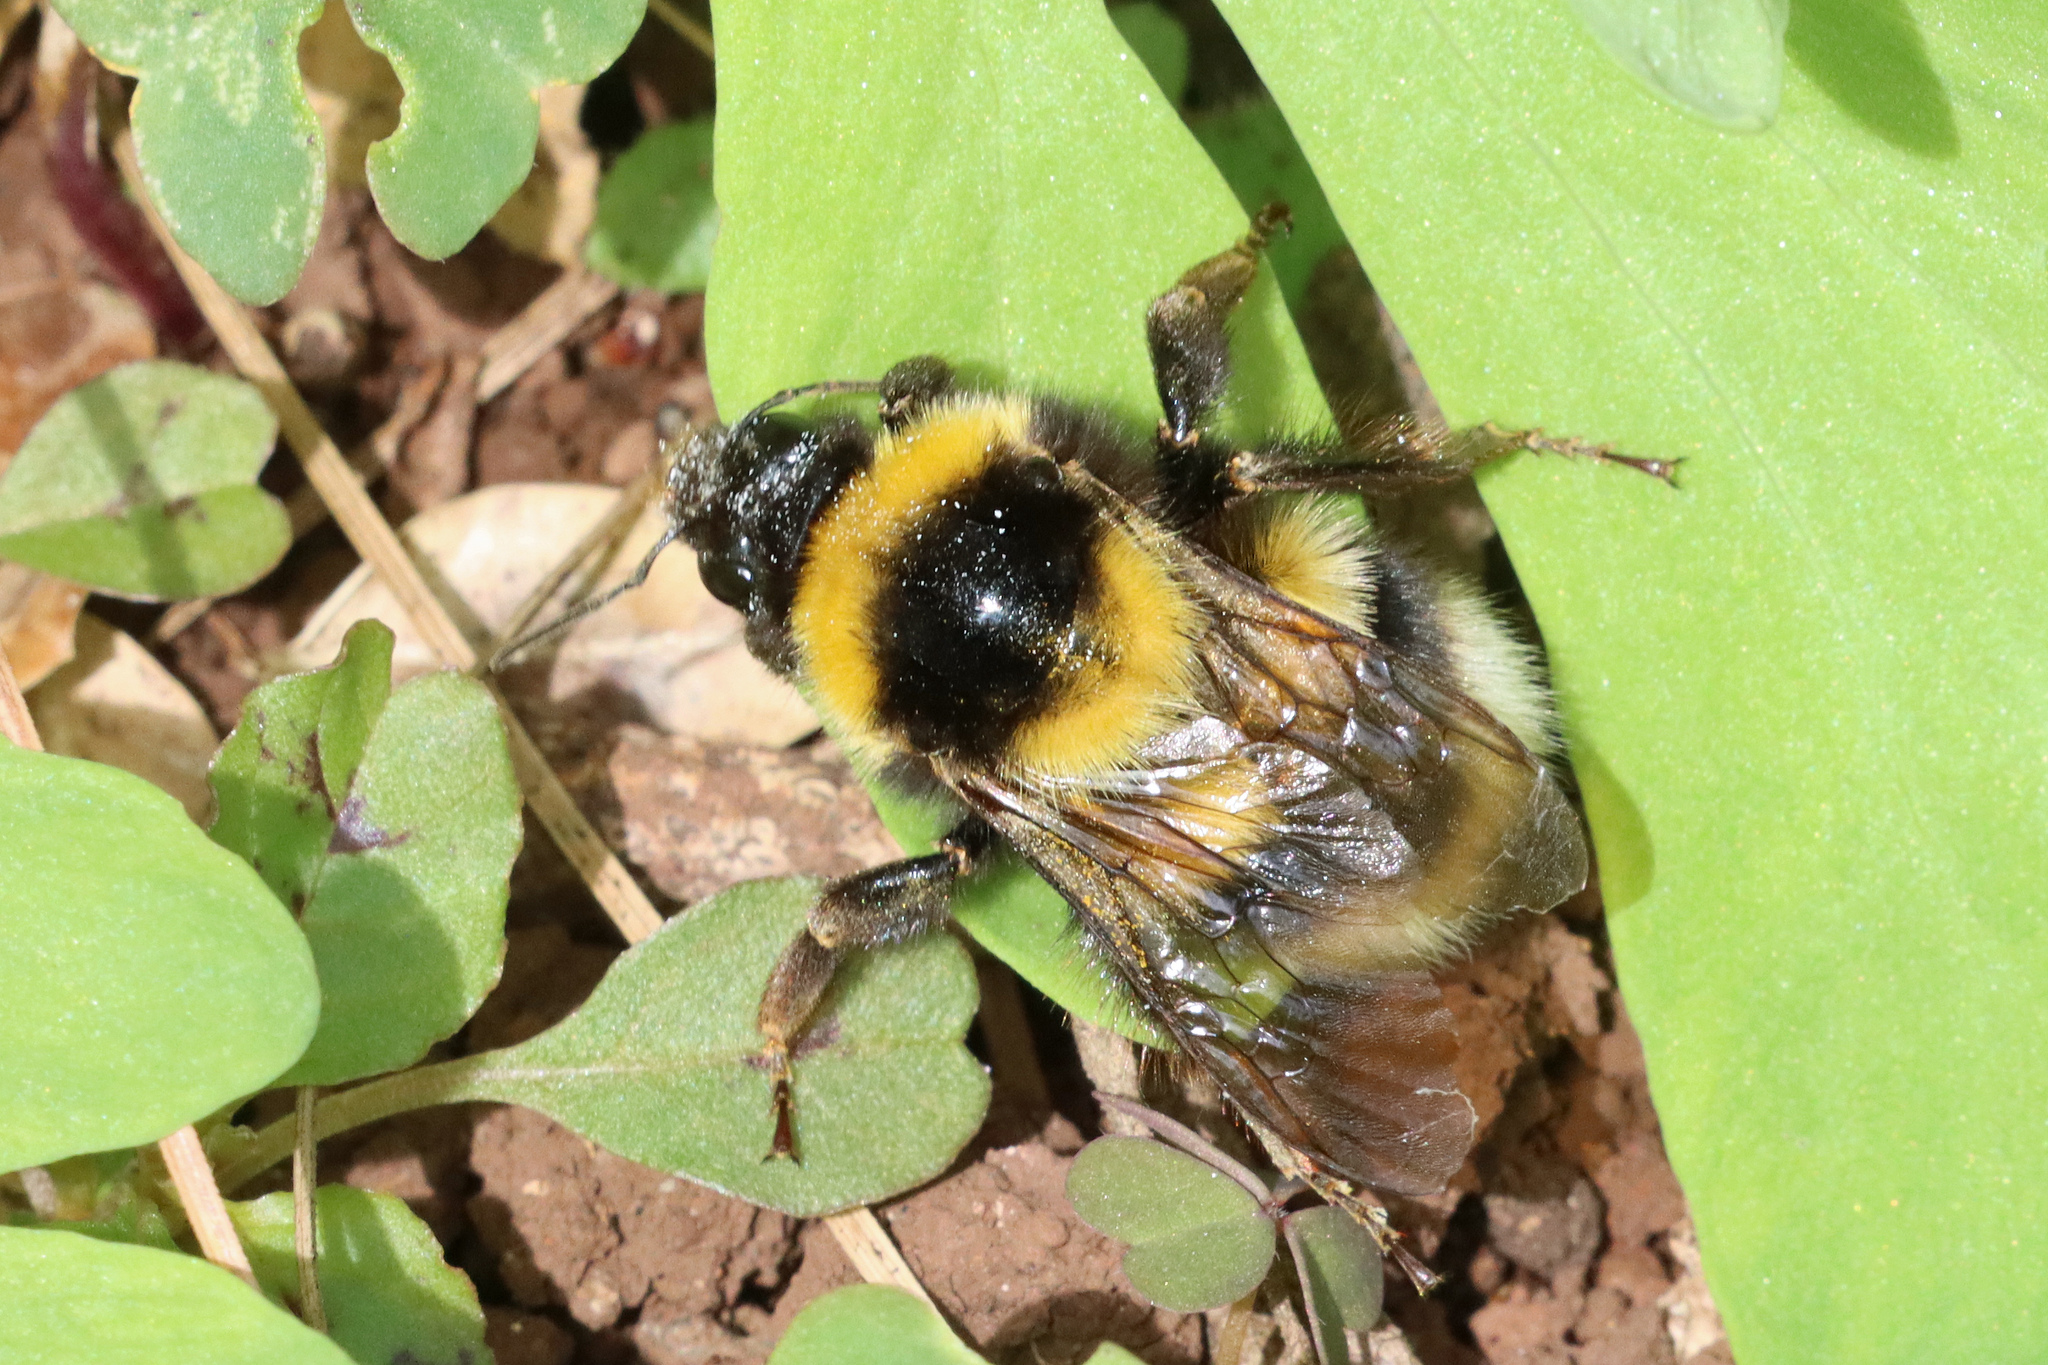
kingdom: Animalia
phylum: Arthropoda
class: Insecta
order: Hymenoptera
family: Apidae
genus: Bombus
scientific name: Bombus ruderatus
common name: Large garden bumblebee
